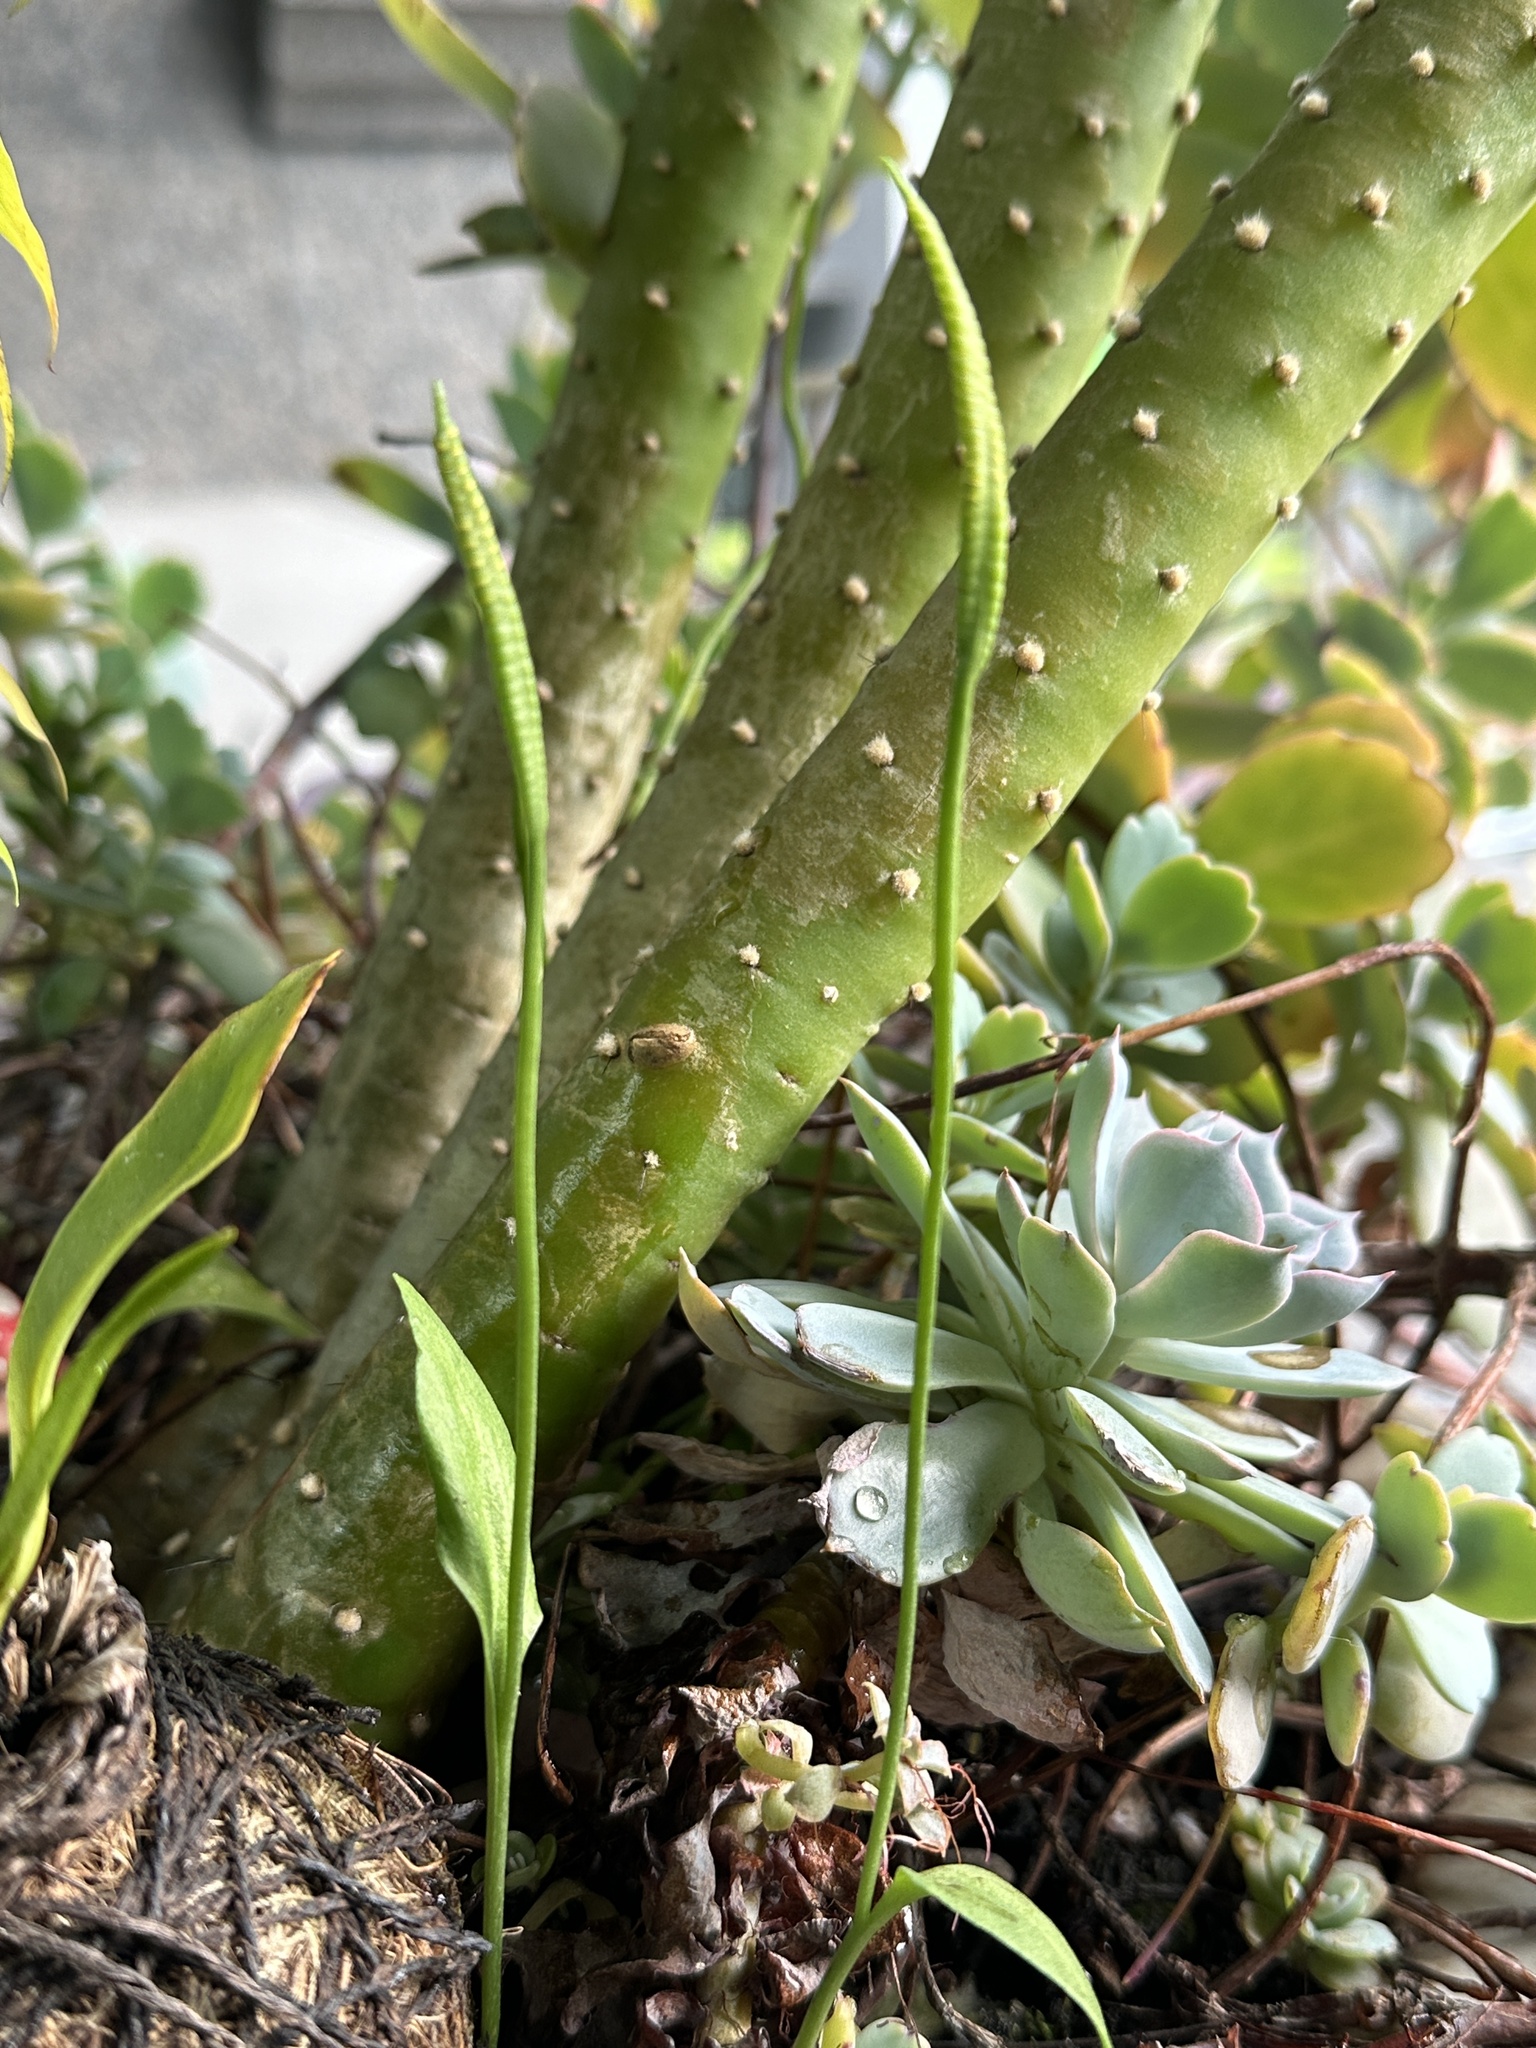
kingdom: Plantae
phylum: Tracheophyta
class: Polypodiopsida
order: Ophioglossales
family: Ophioglossaceae
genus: Ophioglossum
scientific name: Ophioglossum petiolatum
